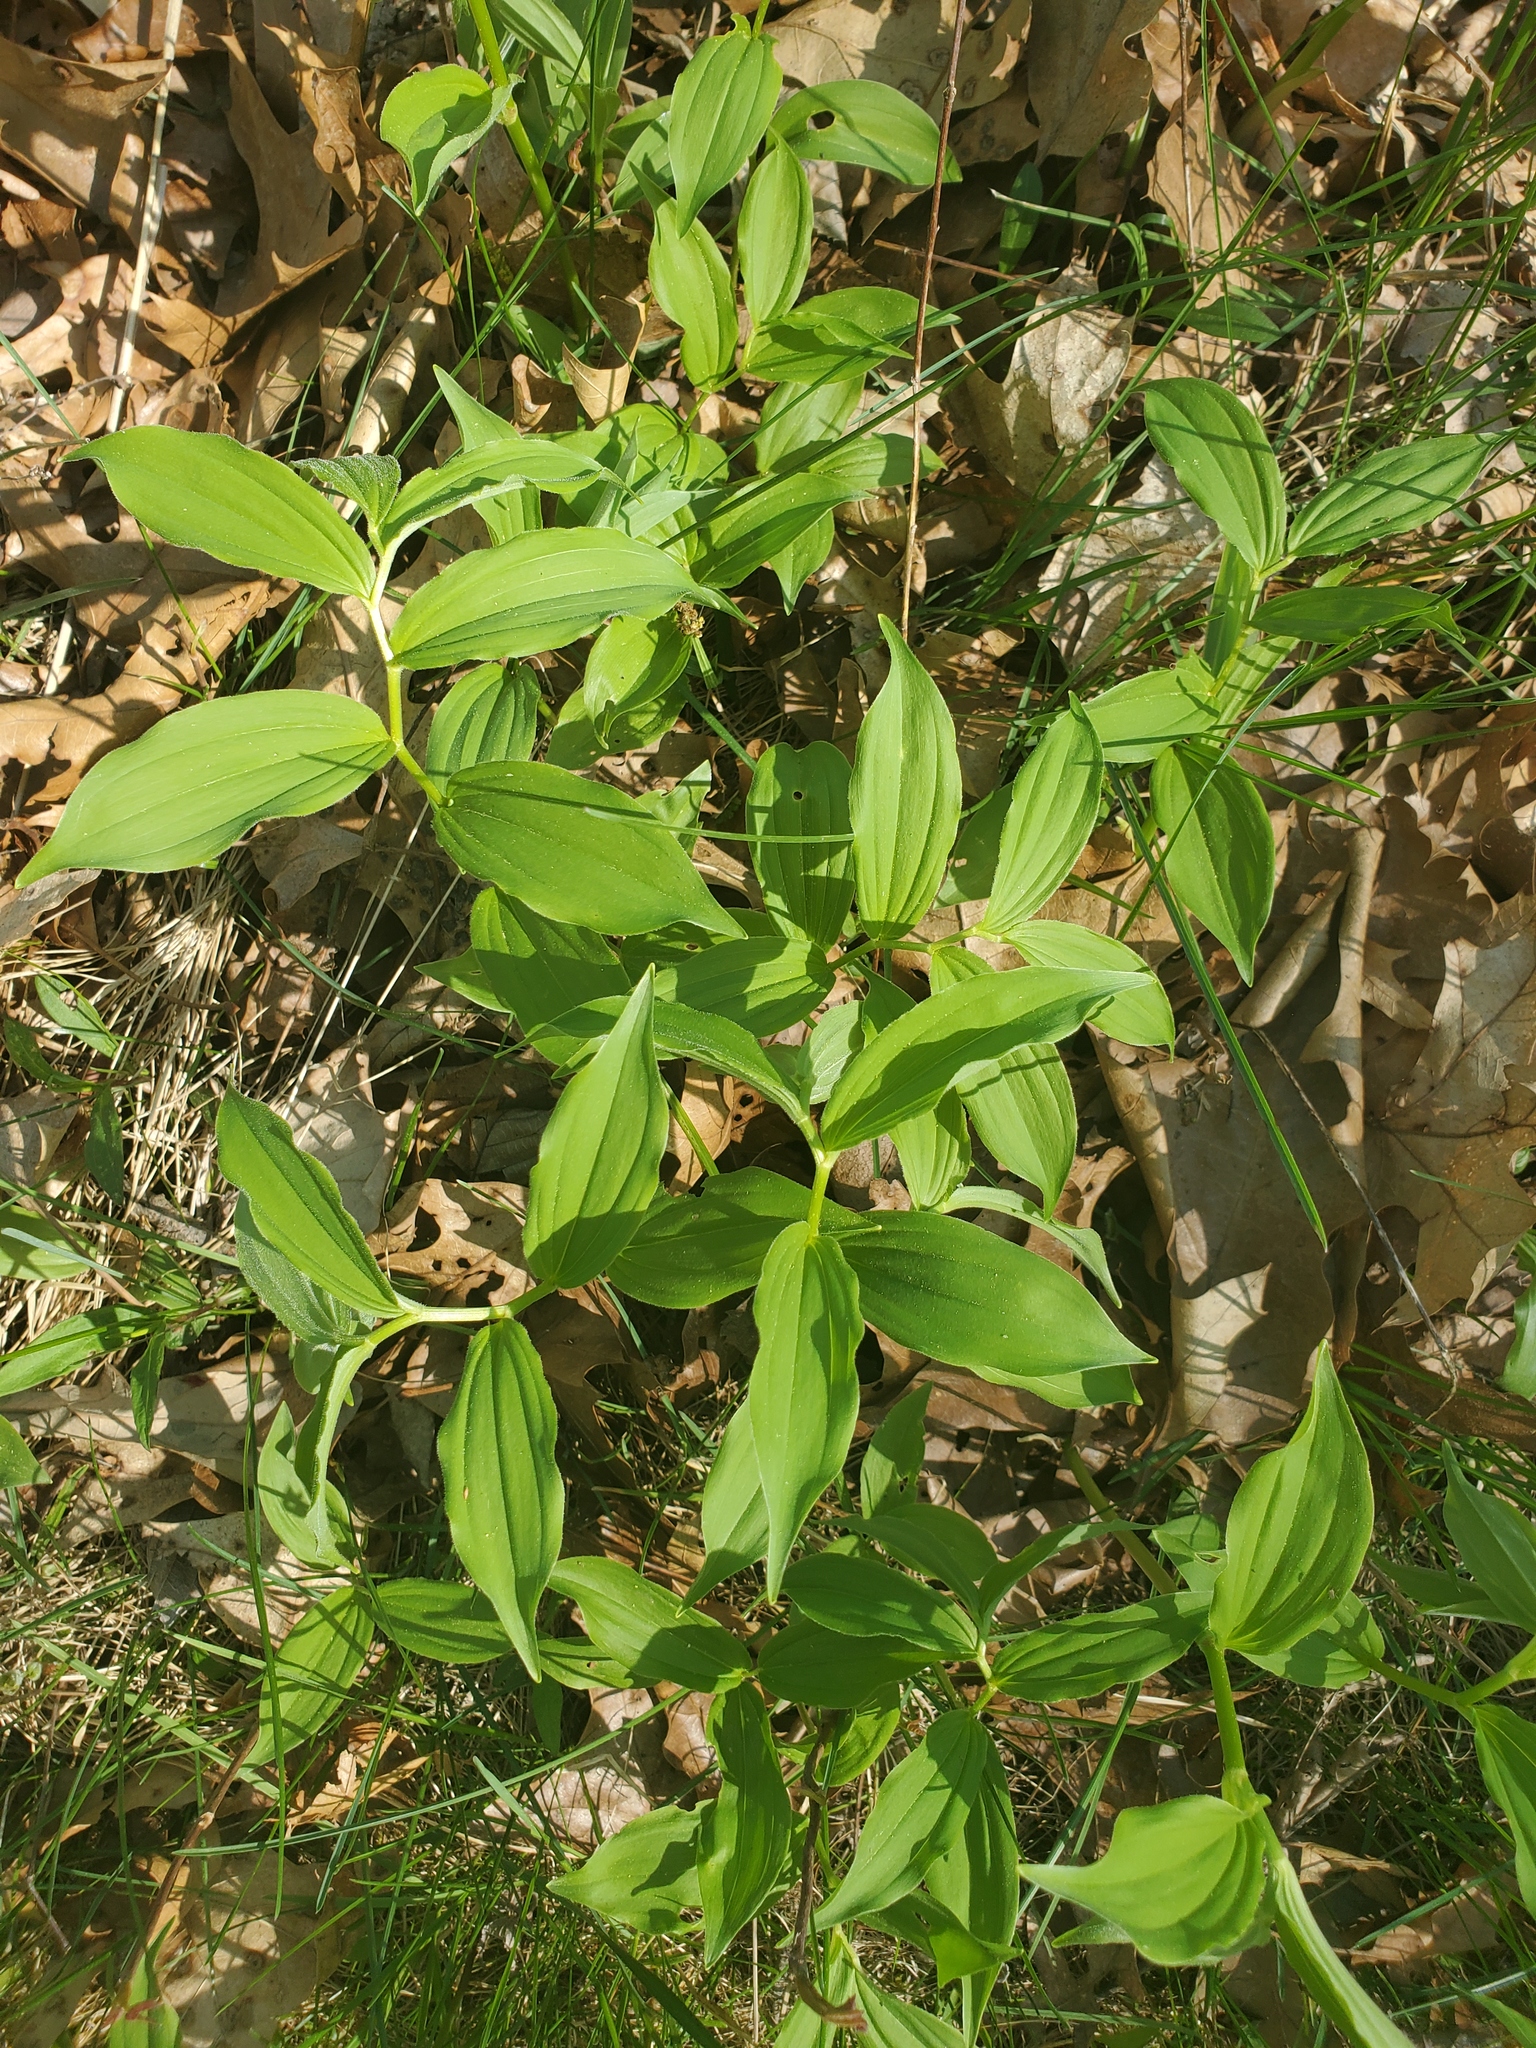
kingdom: Plantae
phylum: Tracheophyta
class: Liliopsida
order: Asparagales
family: Asparagaceae
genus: Maianthemum
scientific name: Maianthemum racemosum
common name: False spikenard
